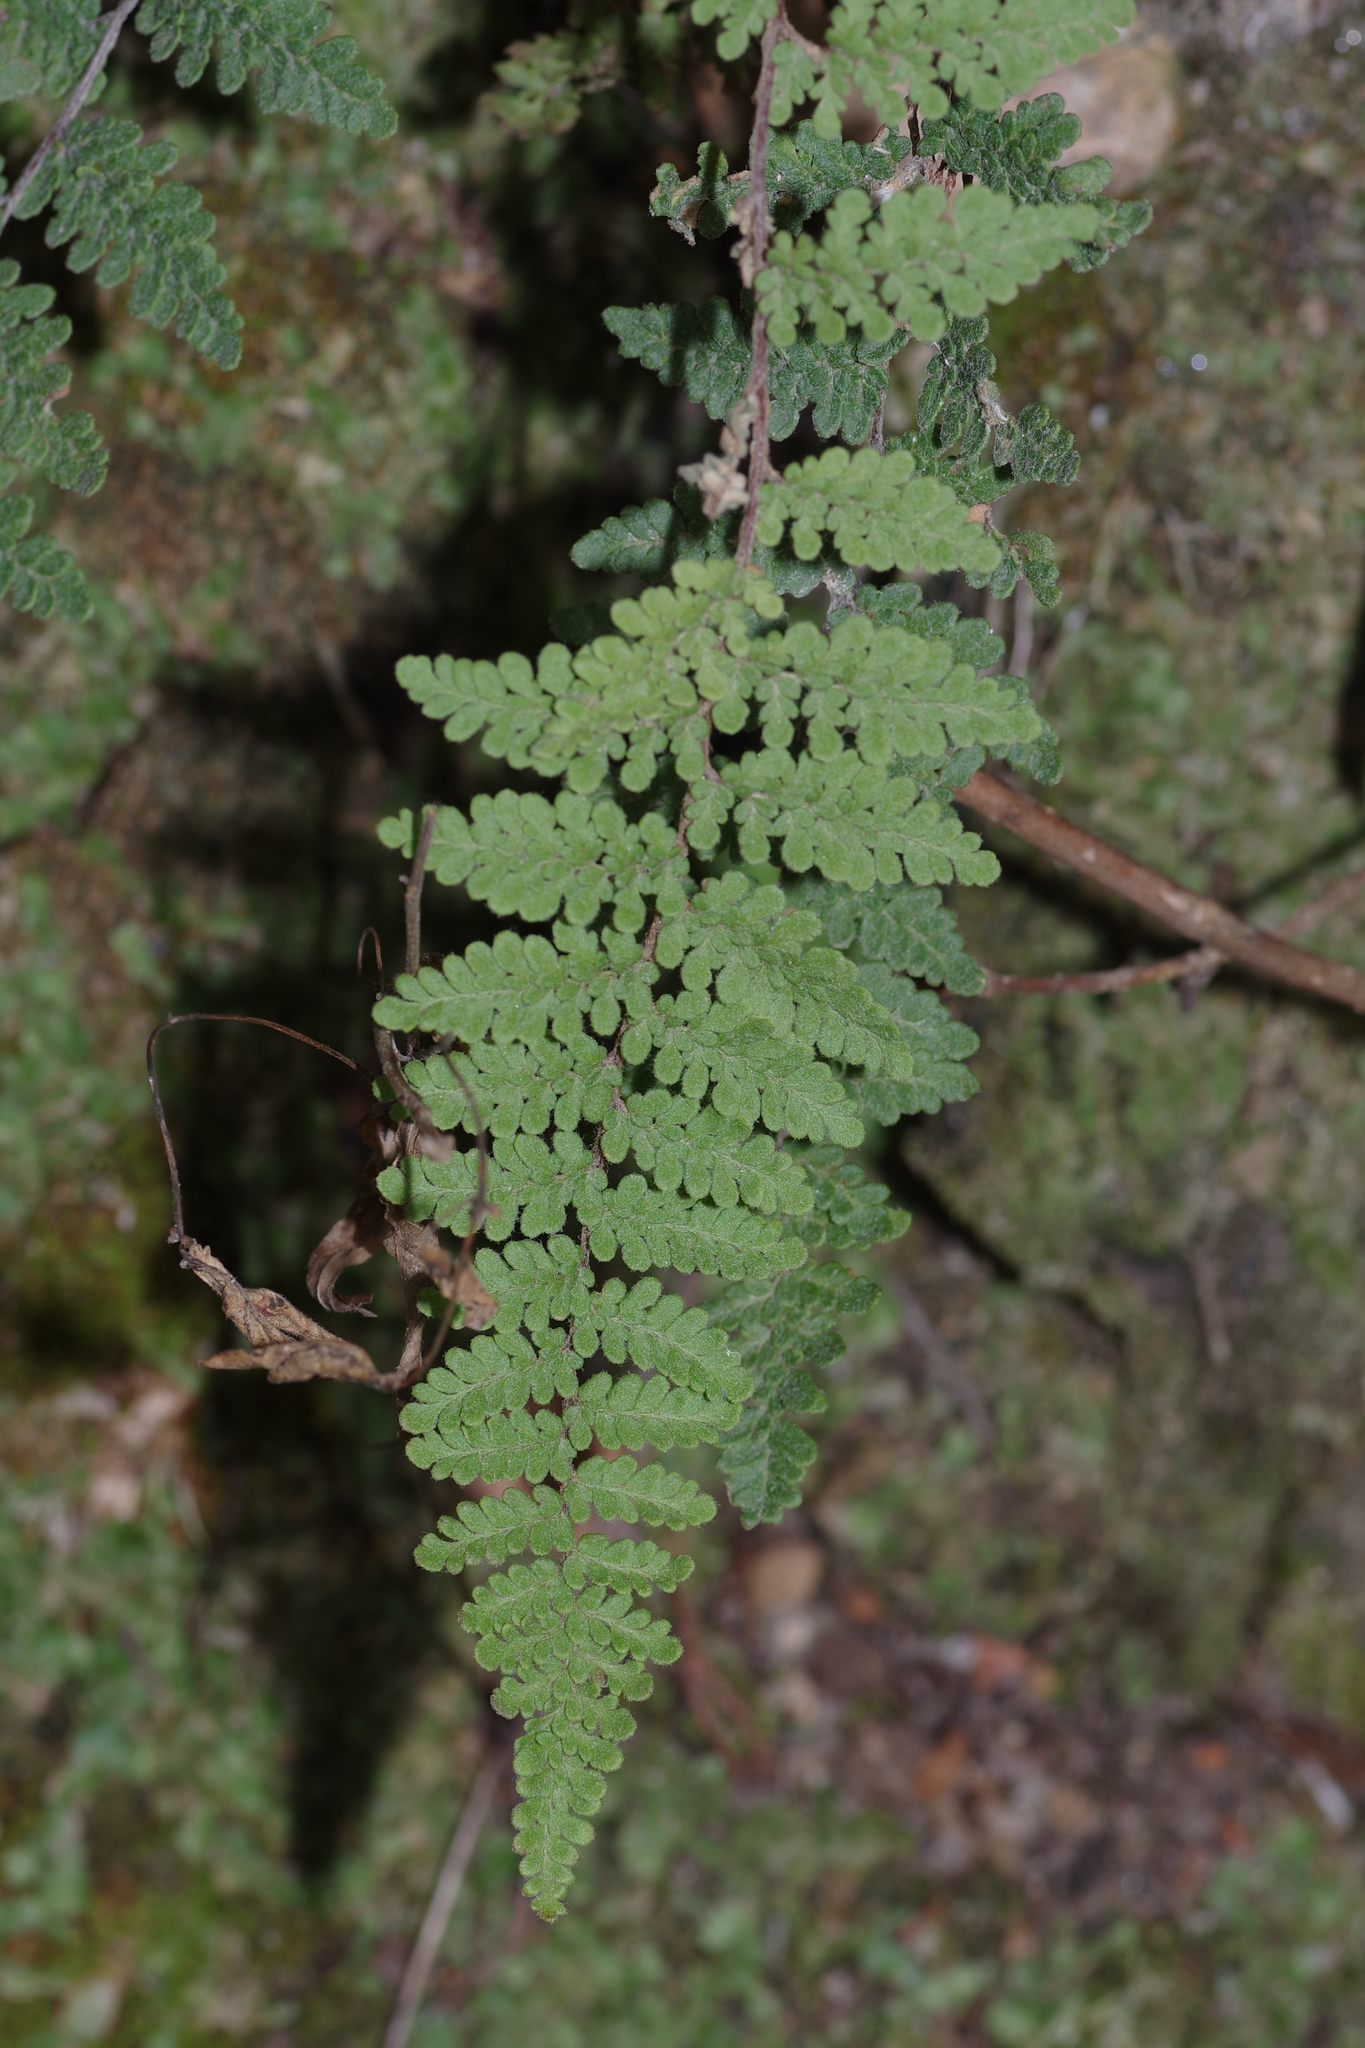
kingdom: Plantae
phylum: Tracheophyta
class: Polypodiopsida
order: Polypodiales
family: Pteridaceae
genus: Myriopteris
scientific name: Myriopteris tomentosa
